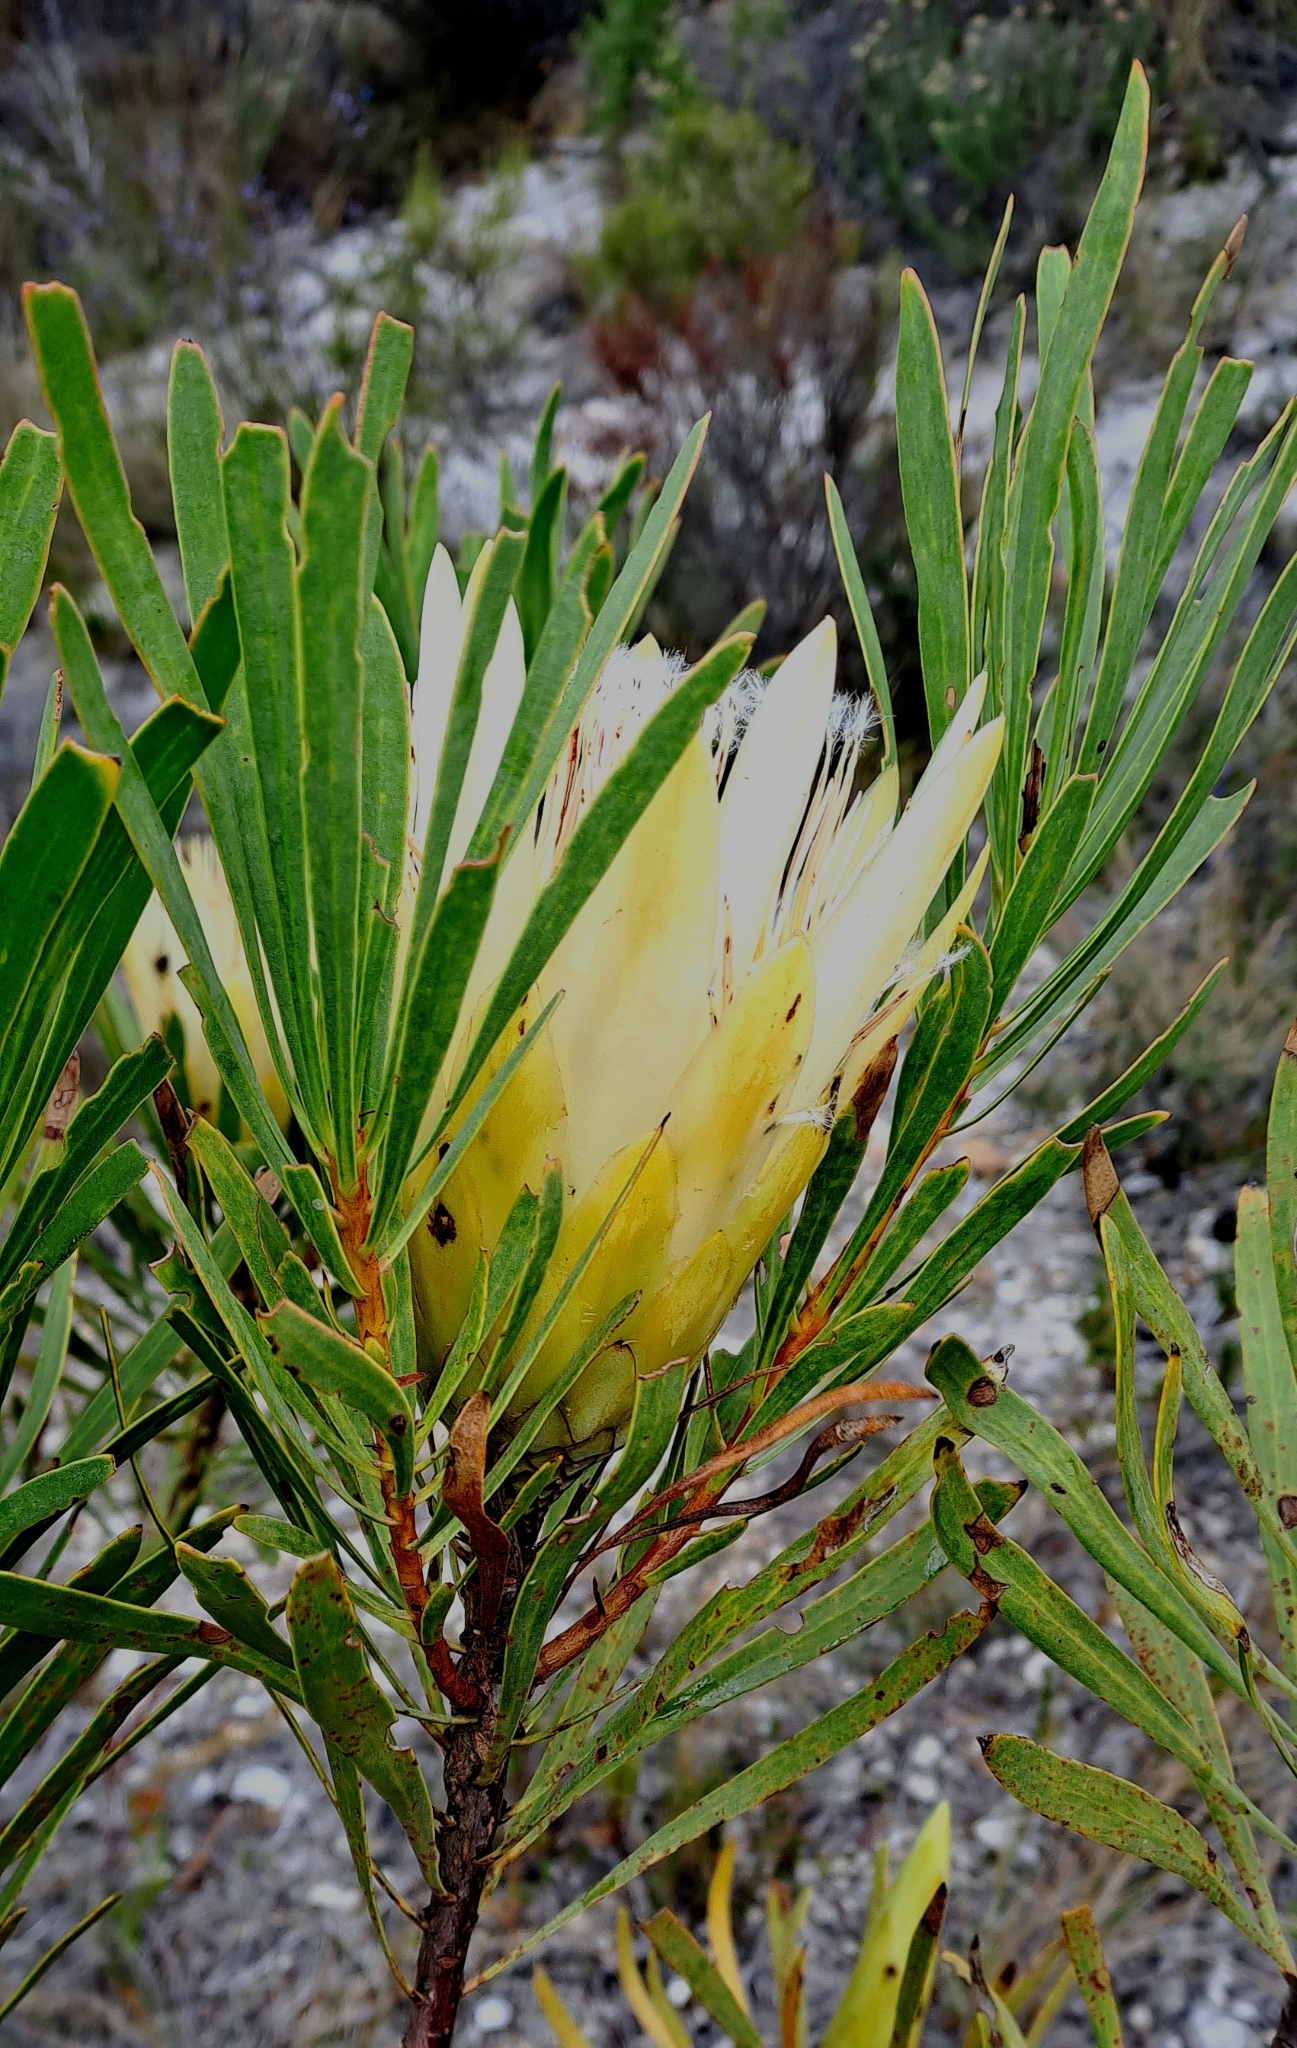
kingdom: Plantae
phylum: Tracheophyta
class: Magnoliopsida
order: Proteales
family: Proteaceae
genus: Protea
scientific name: Protea repens
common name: Sugarbush
